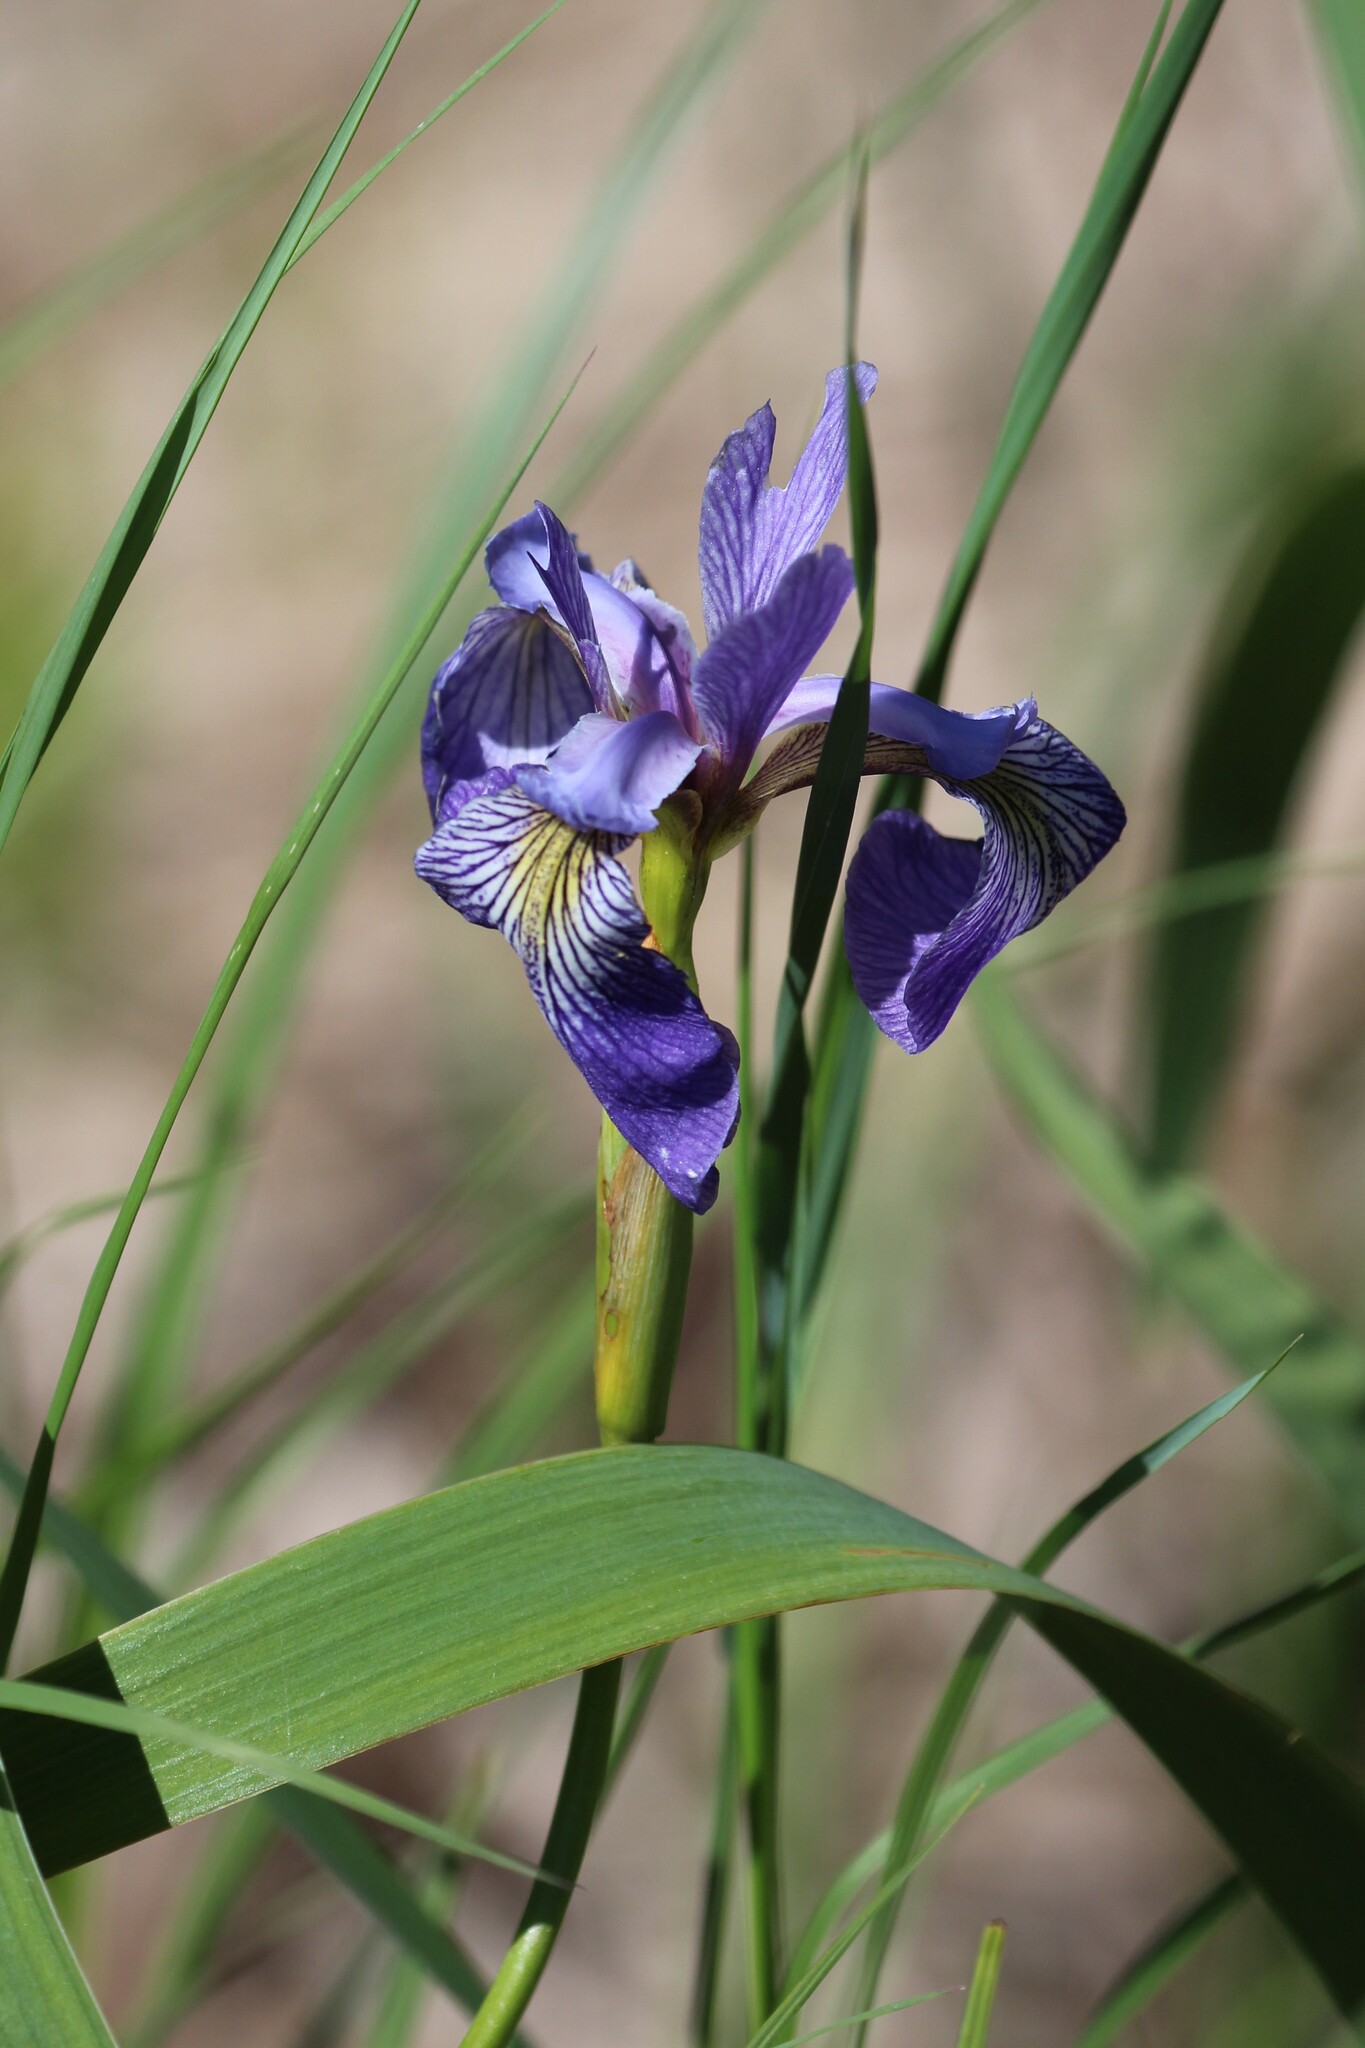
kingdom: Plantae
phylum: Tracheophyta
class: Liliopsida
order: Asparagales
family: Iridaceae
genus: Iris
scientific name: Iris versicolor
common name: Purple iris
